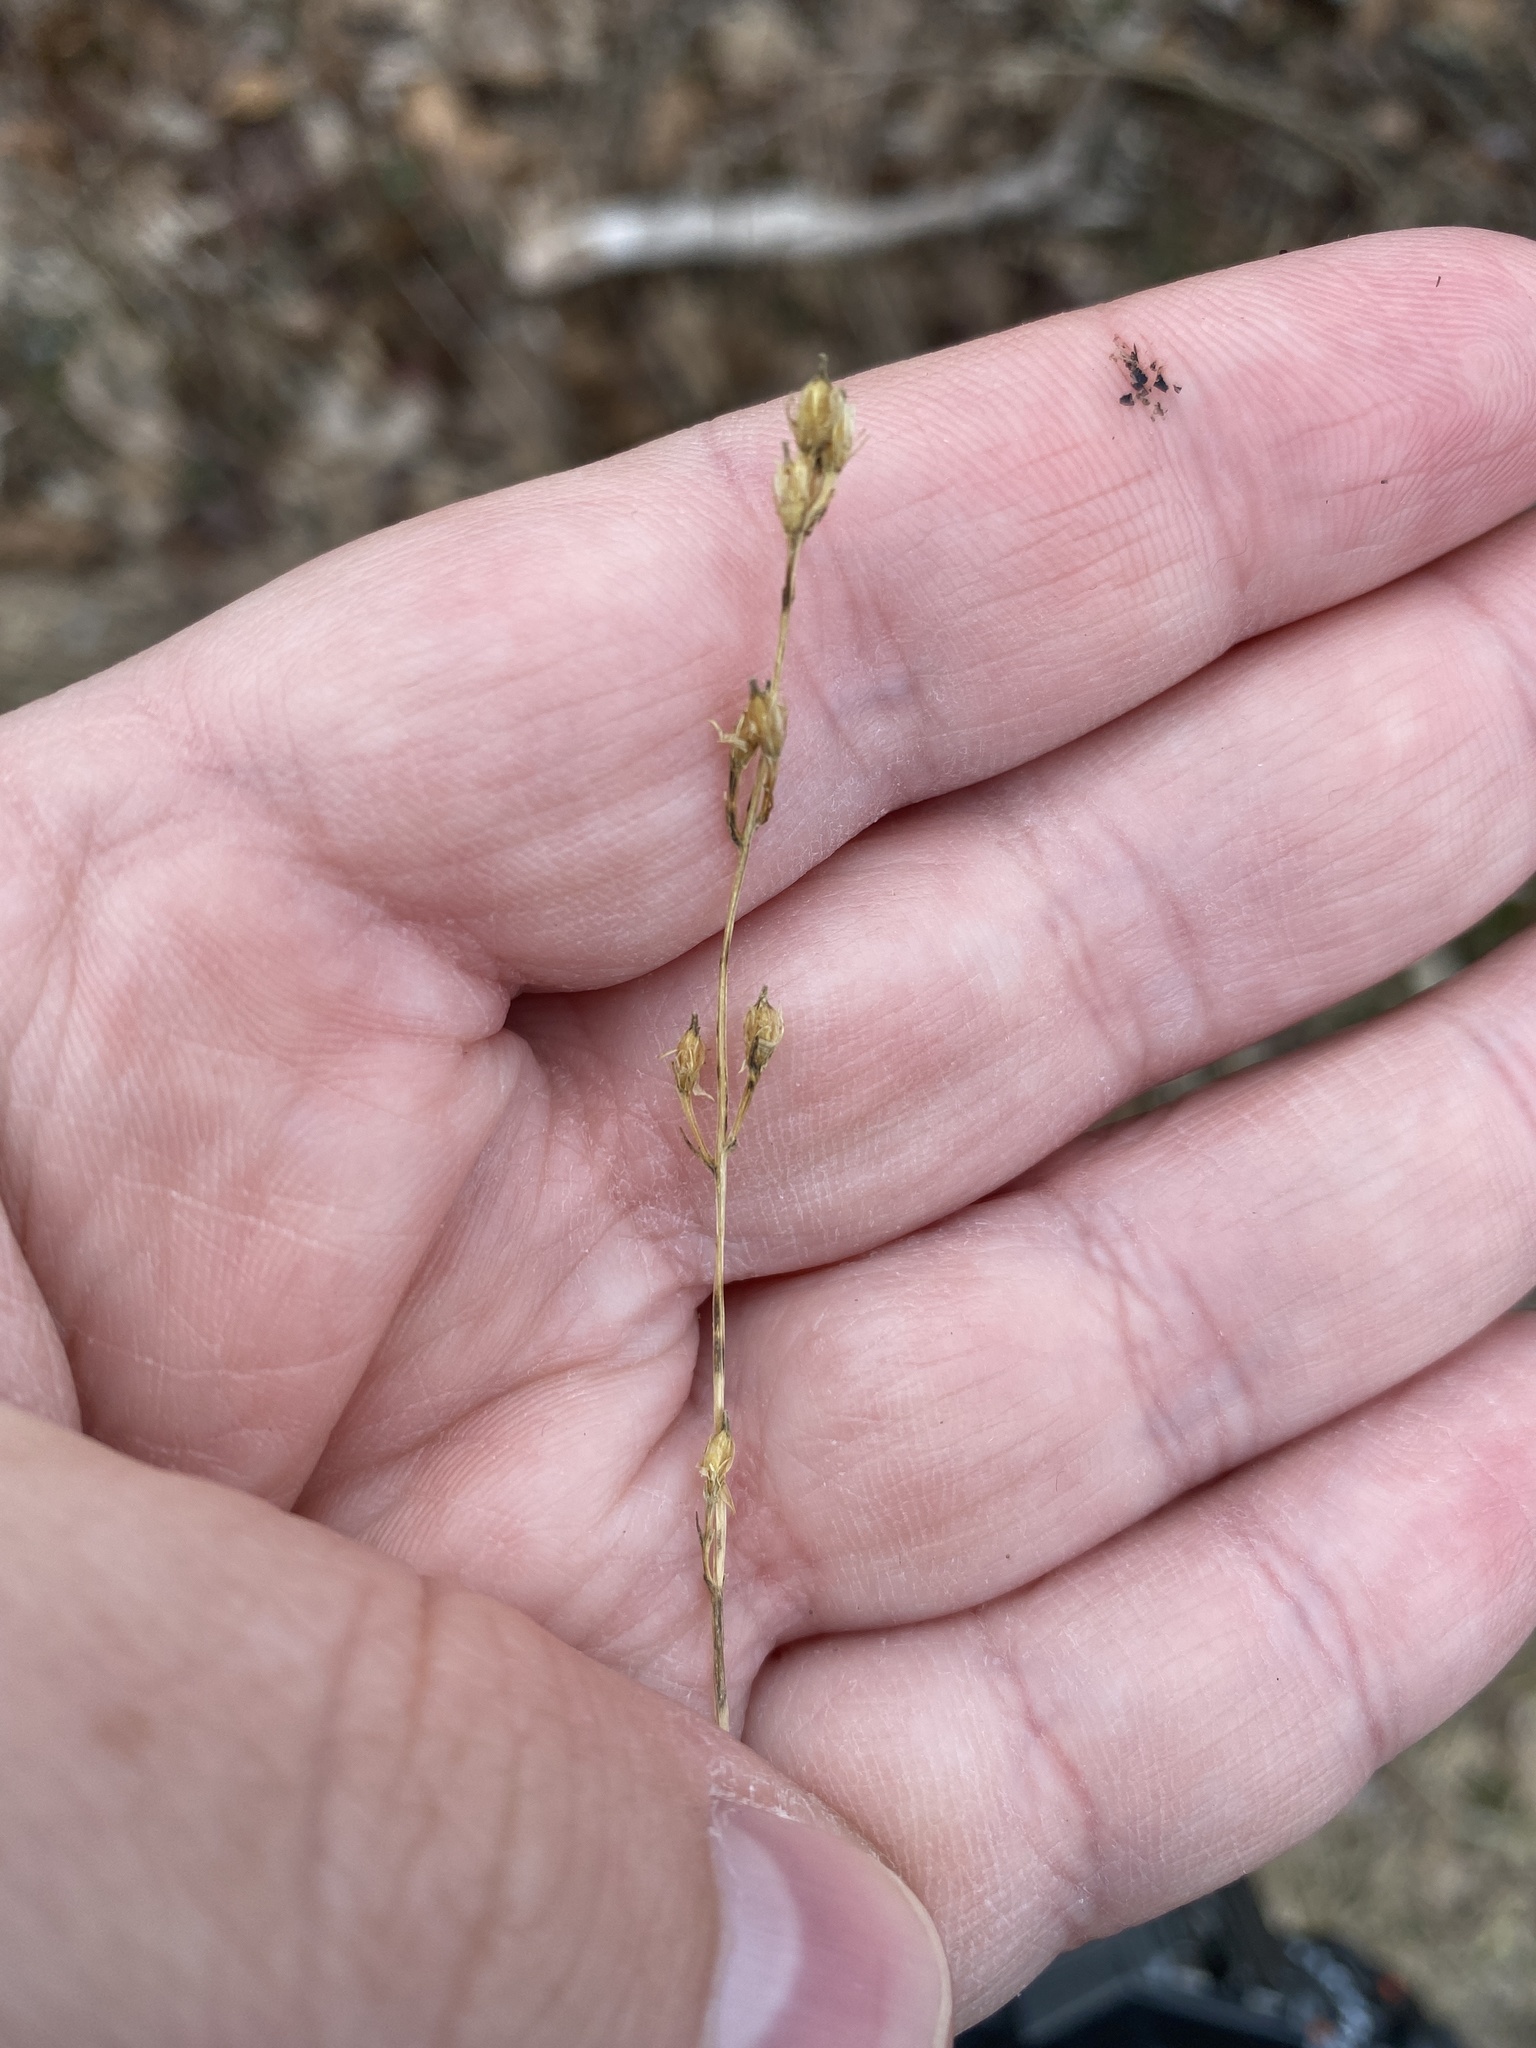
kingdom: Plantae
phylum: Tracheophyta
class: Magnoliopsida
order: Gentianales
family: Gentianaceae
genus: Bartonia
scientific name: Bartonia virginica
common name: Yellow bartonia
